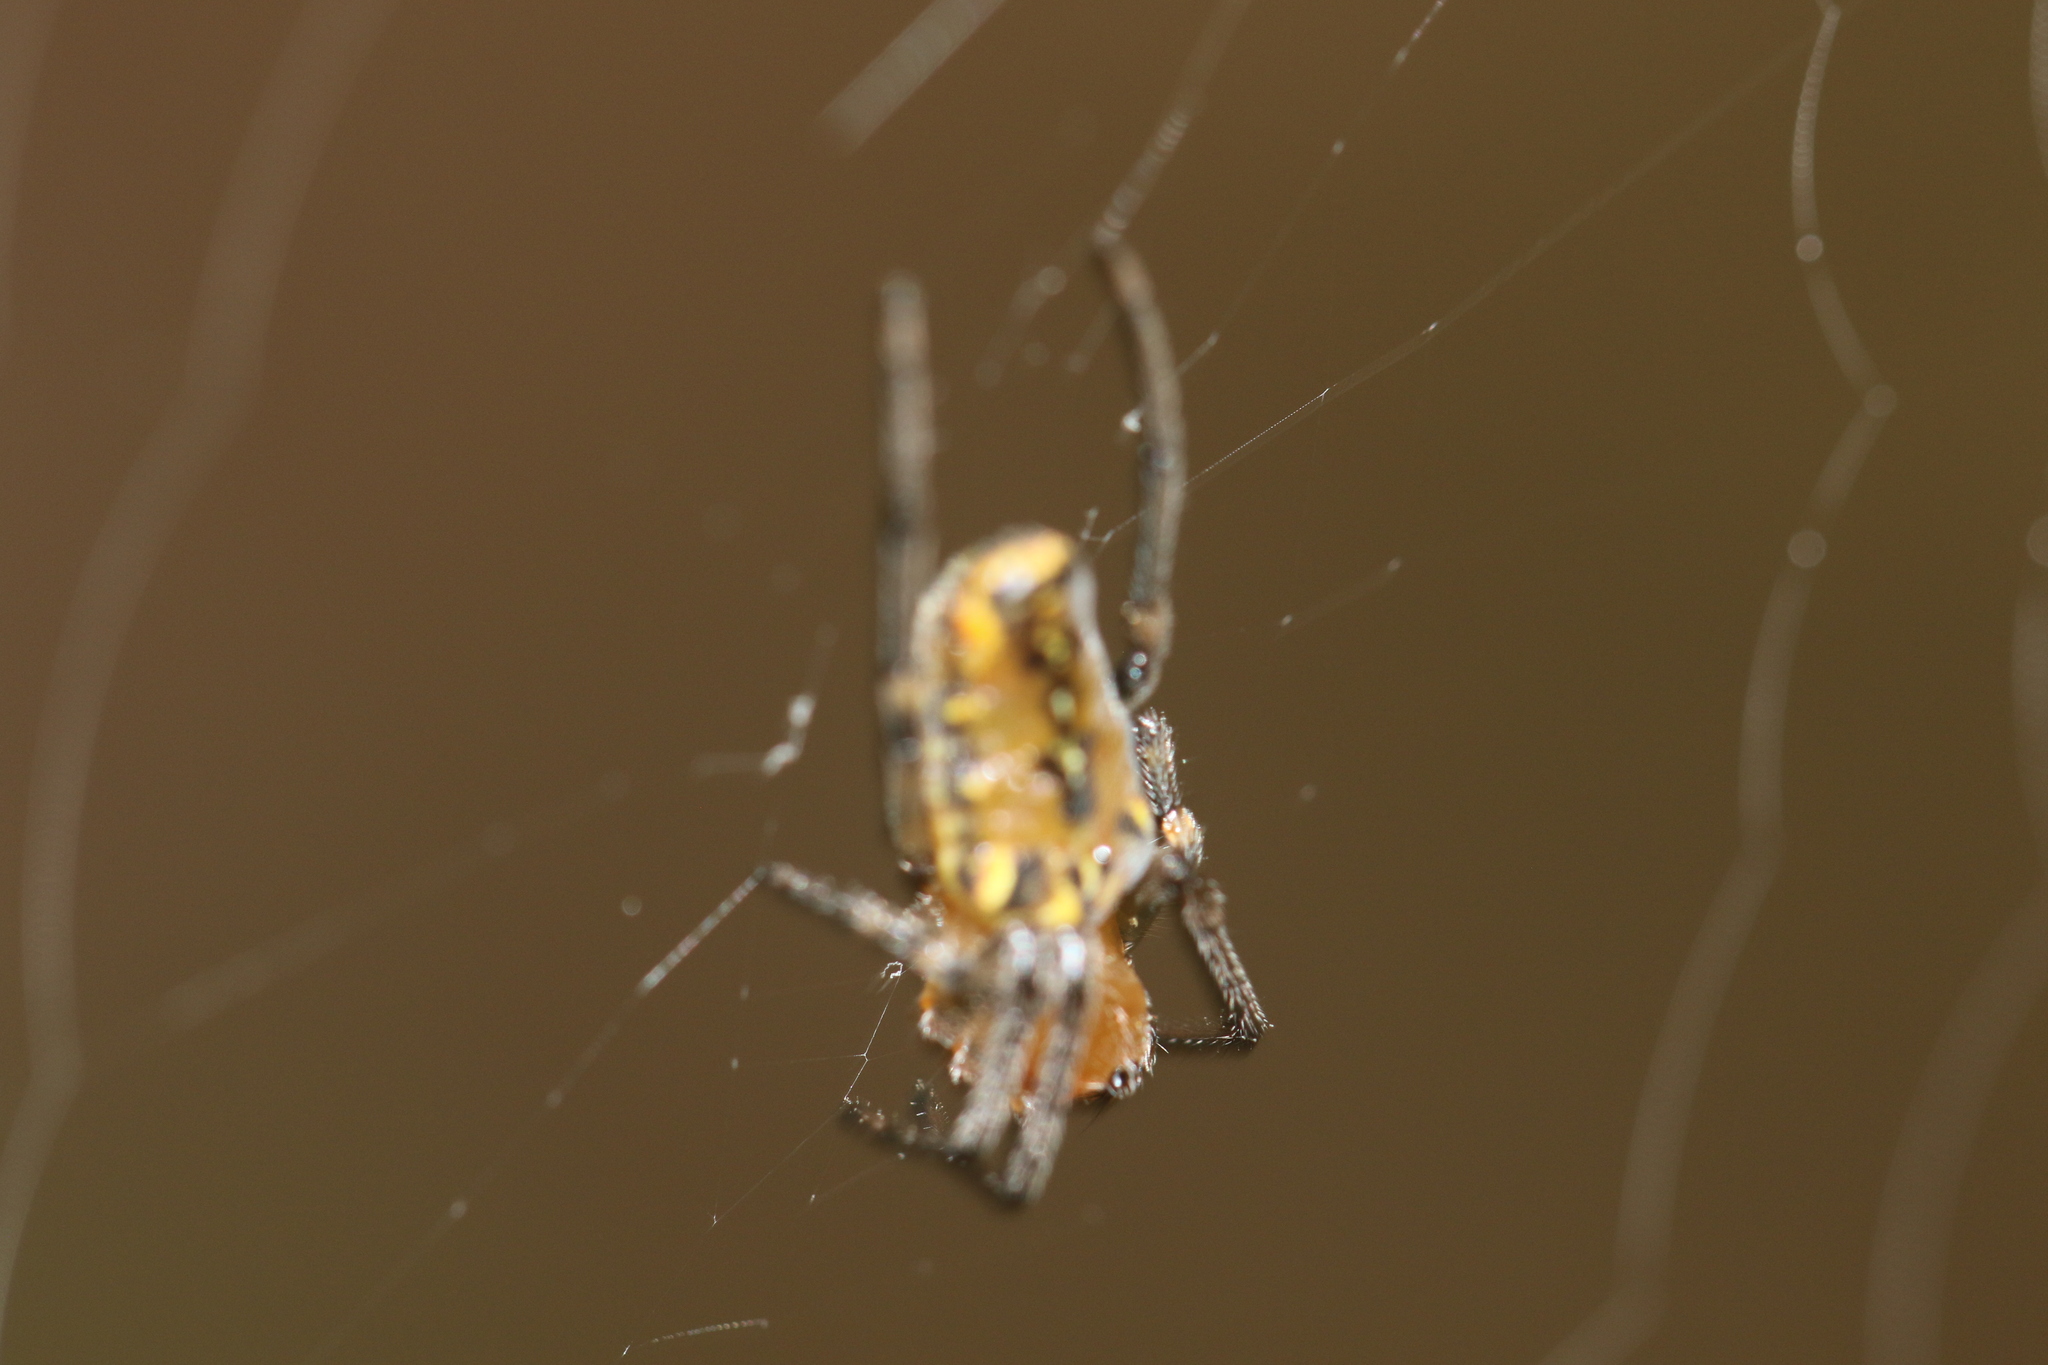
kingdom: Animalia
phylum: Arthropoda
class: Arachnida
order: Araneae
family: Araneidae
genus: Alpaida
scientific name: Alpaida scriba
